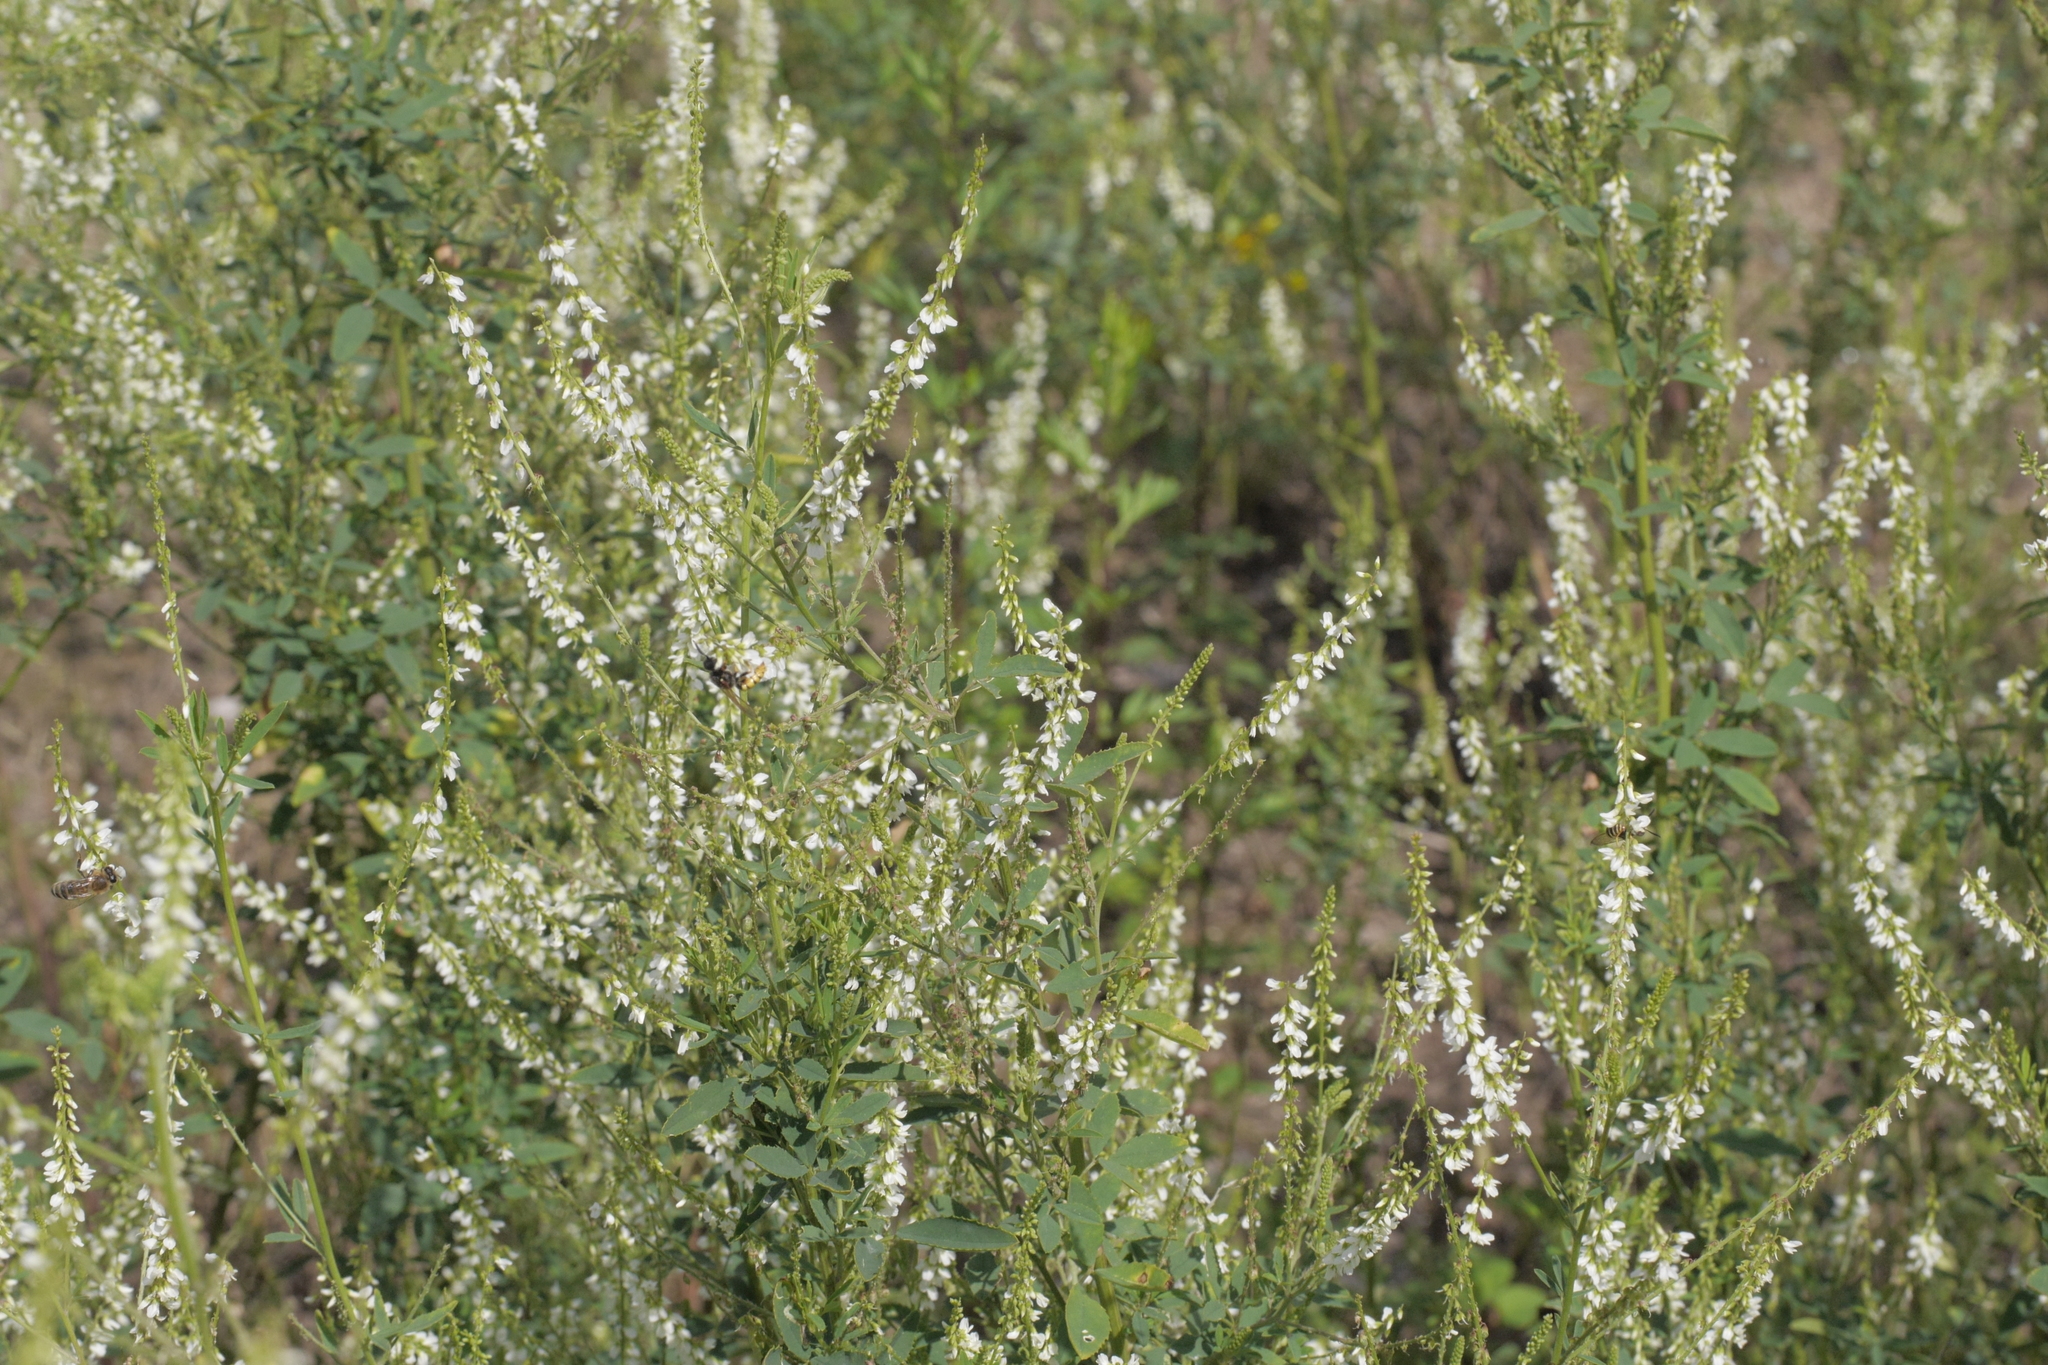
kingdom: Plantae
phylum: Tracheophyta
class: Magnoliopsida
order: Fabales
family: Fabaceae
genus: Melilotus
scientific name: Melilotus albus
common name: White melilot
